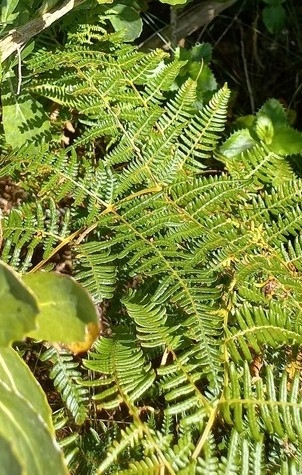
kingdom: Plantae
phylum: Tracheophyta
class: Polypodiopsida
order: Polypodiales
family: Dennstaedtiaceae
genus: Pteridium
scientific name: Pteridium aquilinum
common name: Bracken
